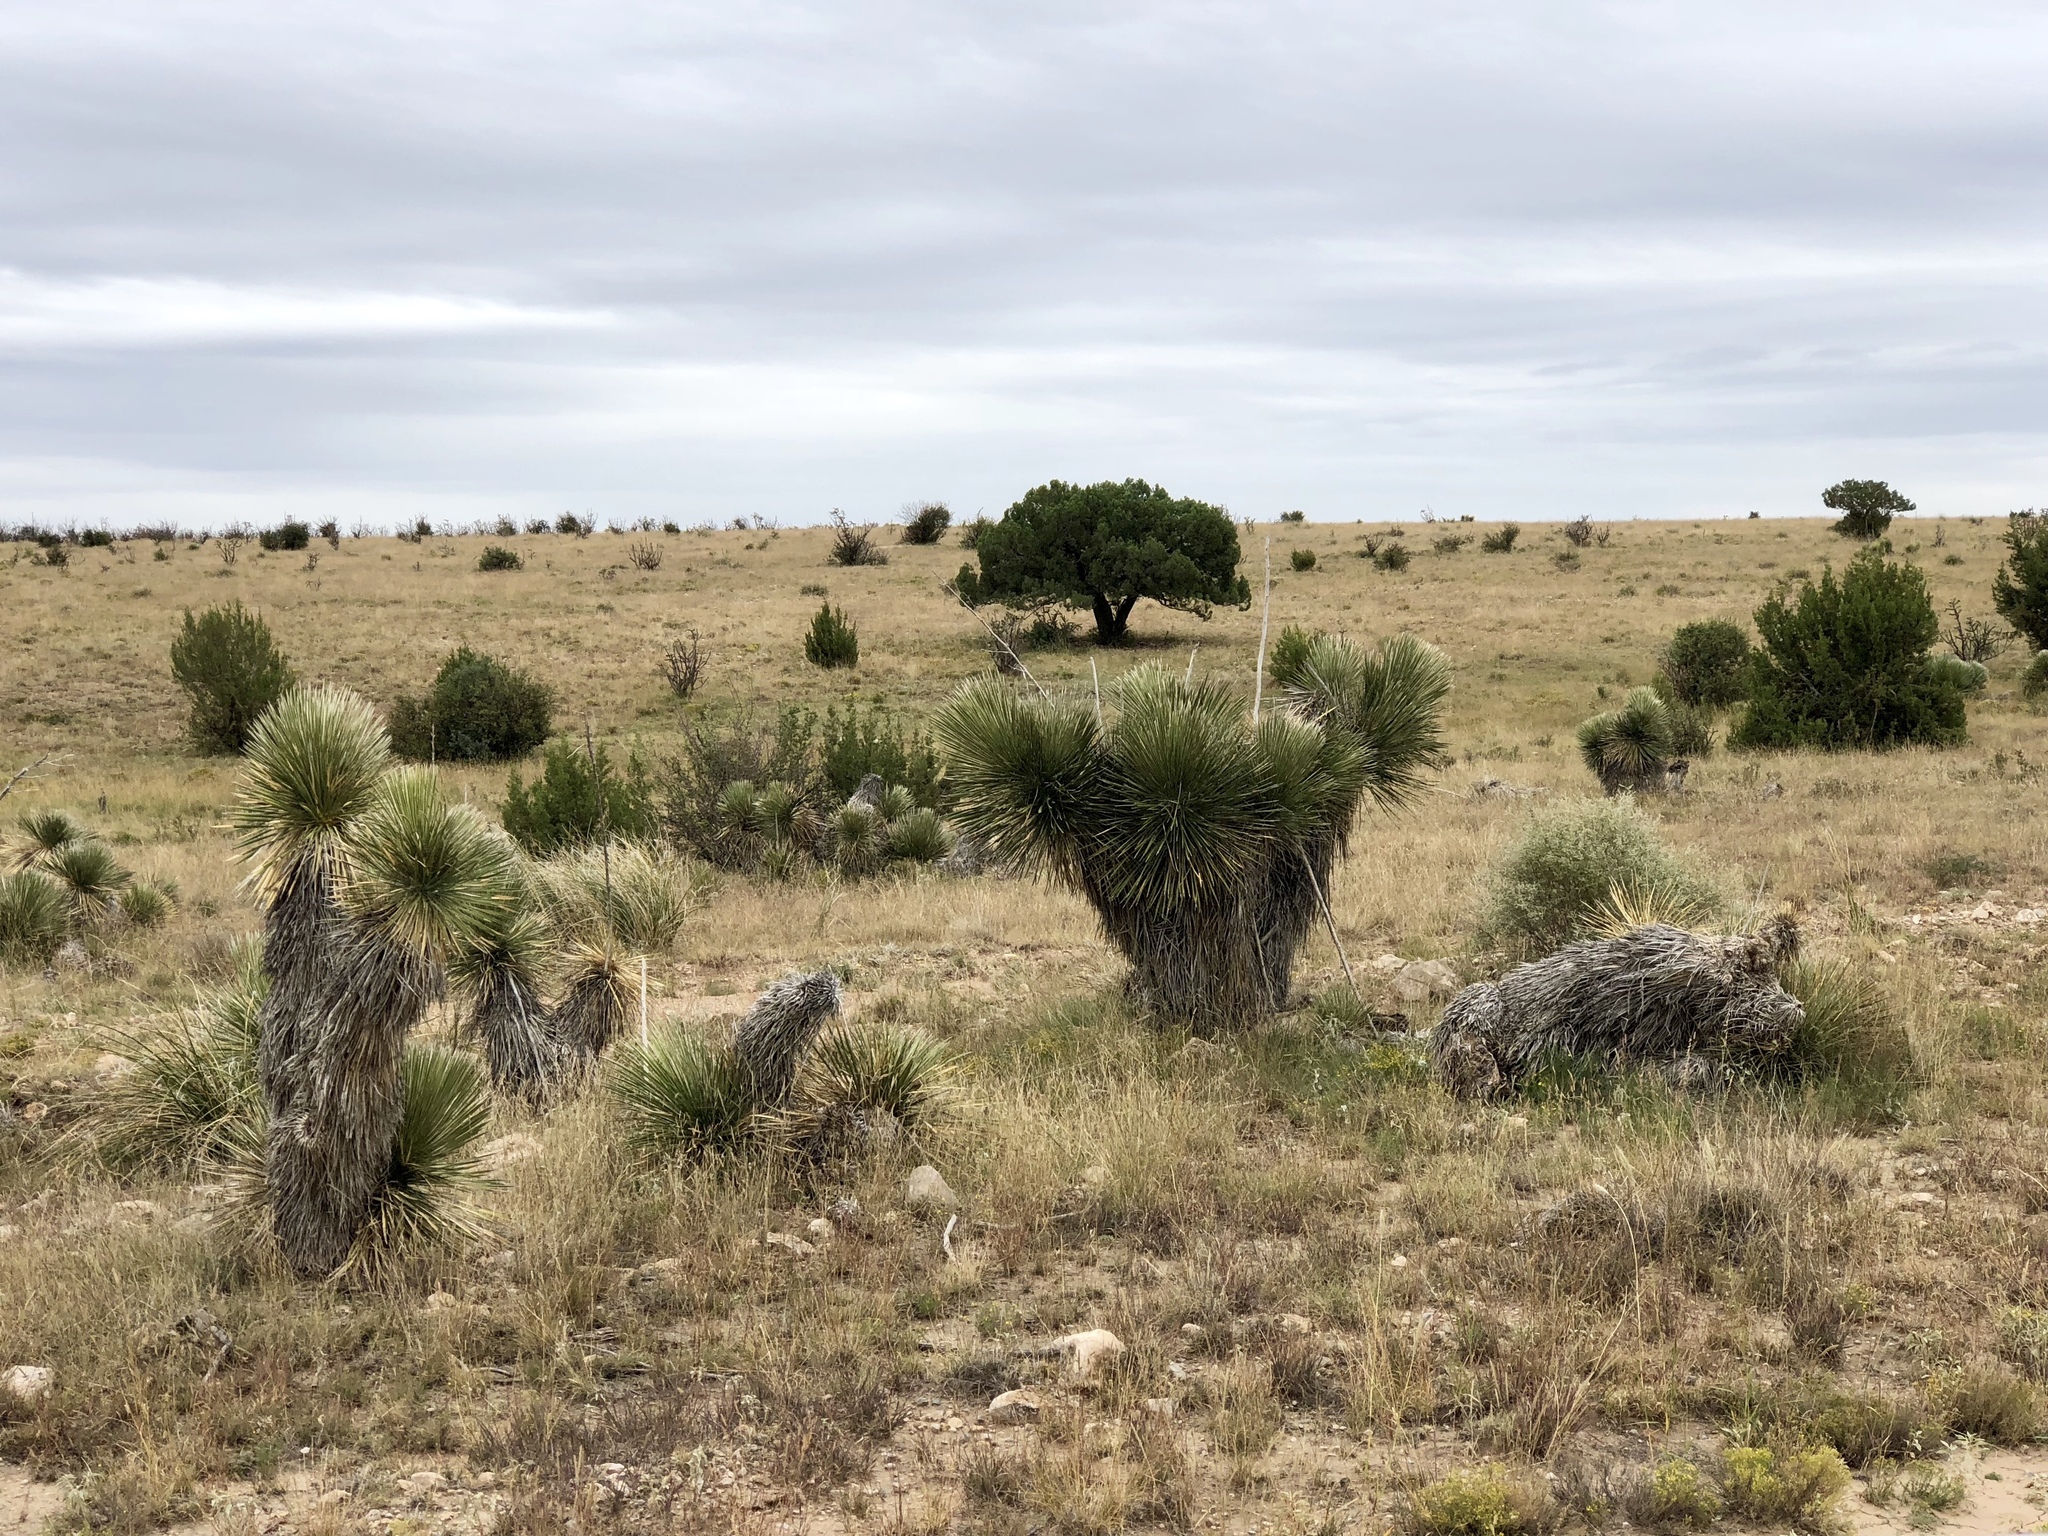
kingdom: Plantae
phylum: Tracheophyta
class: Liliopsida
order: Asparagales
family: Asparagaceae
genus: Yucca
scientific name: Yucca elata
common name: Palmella
